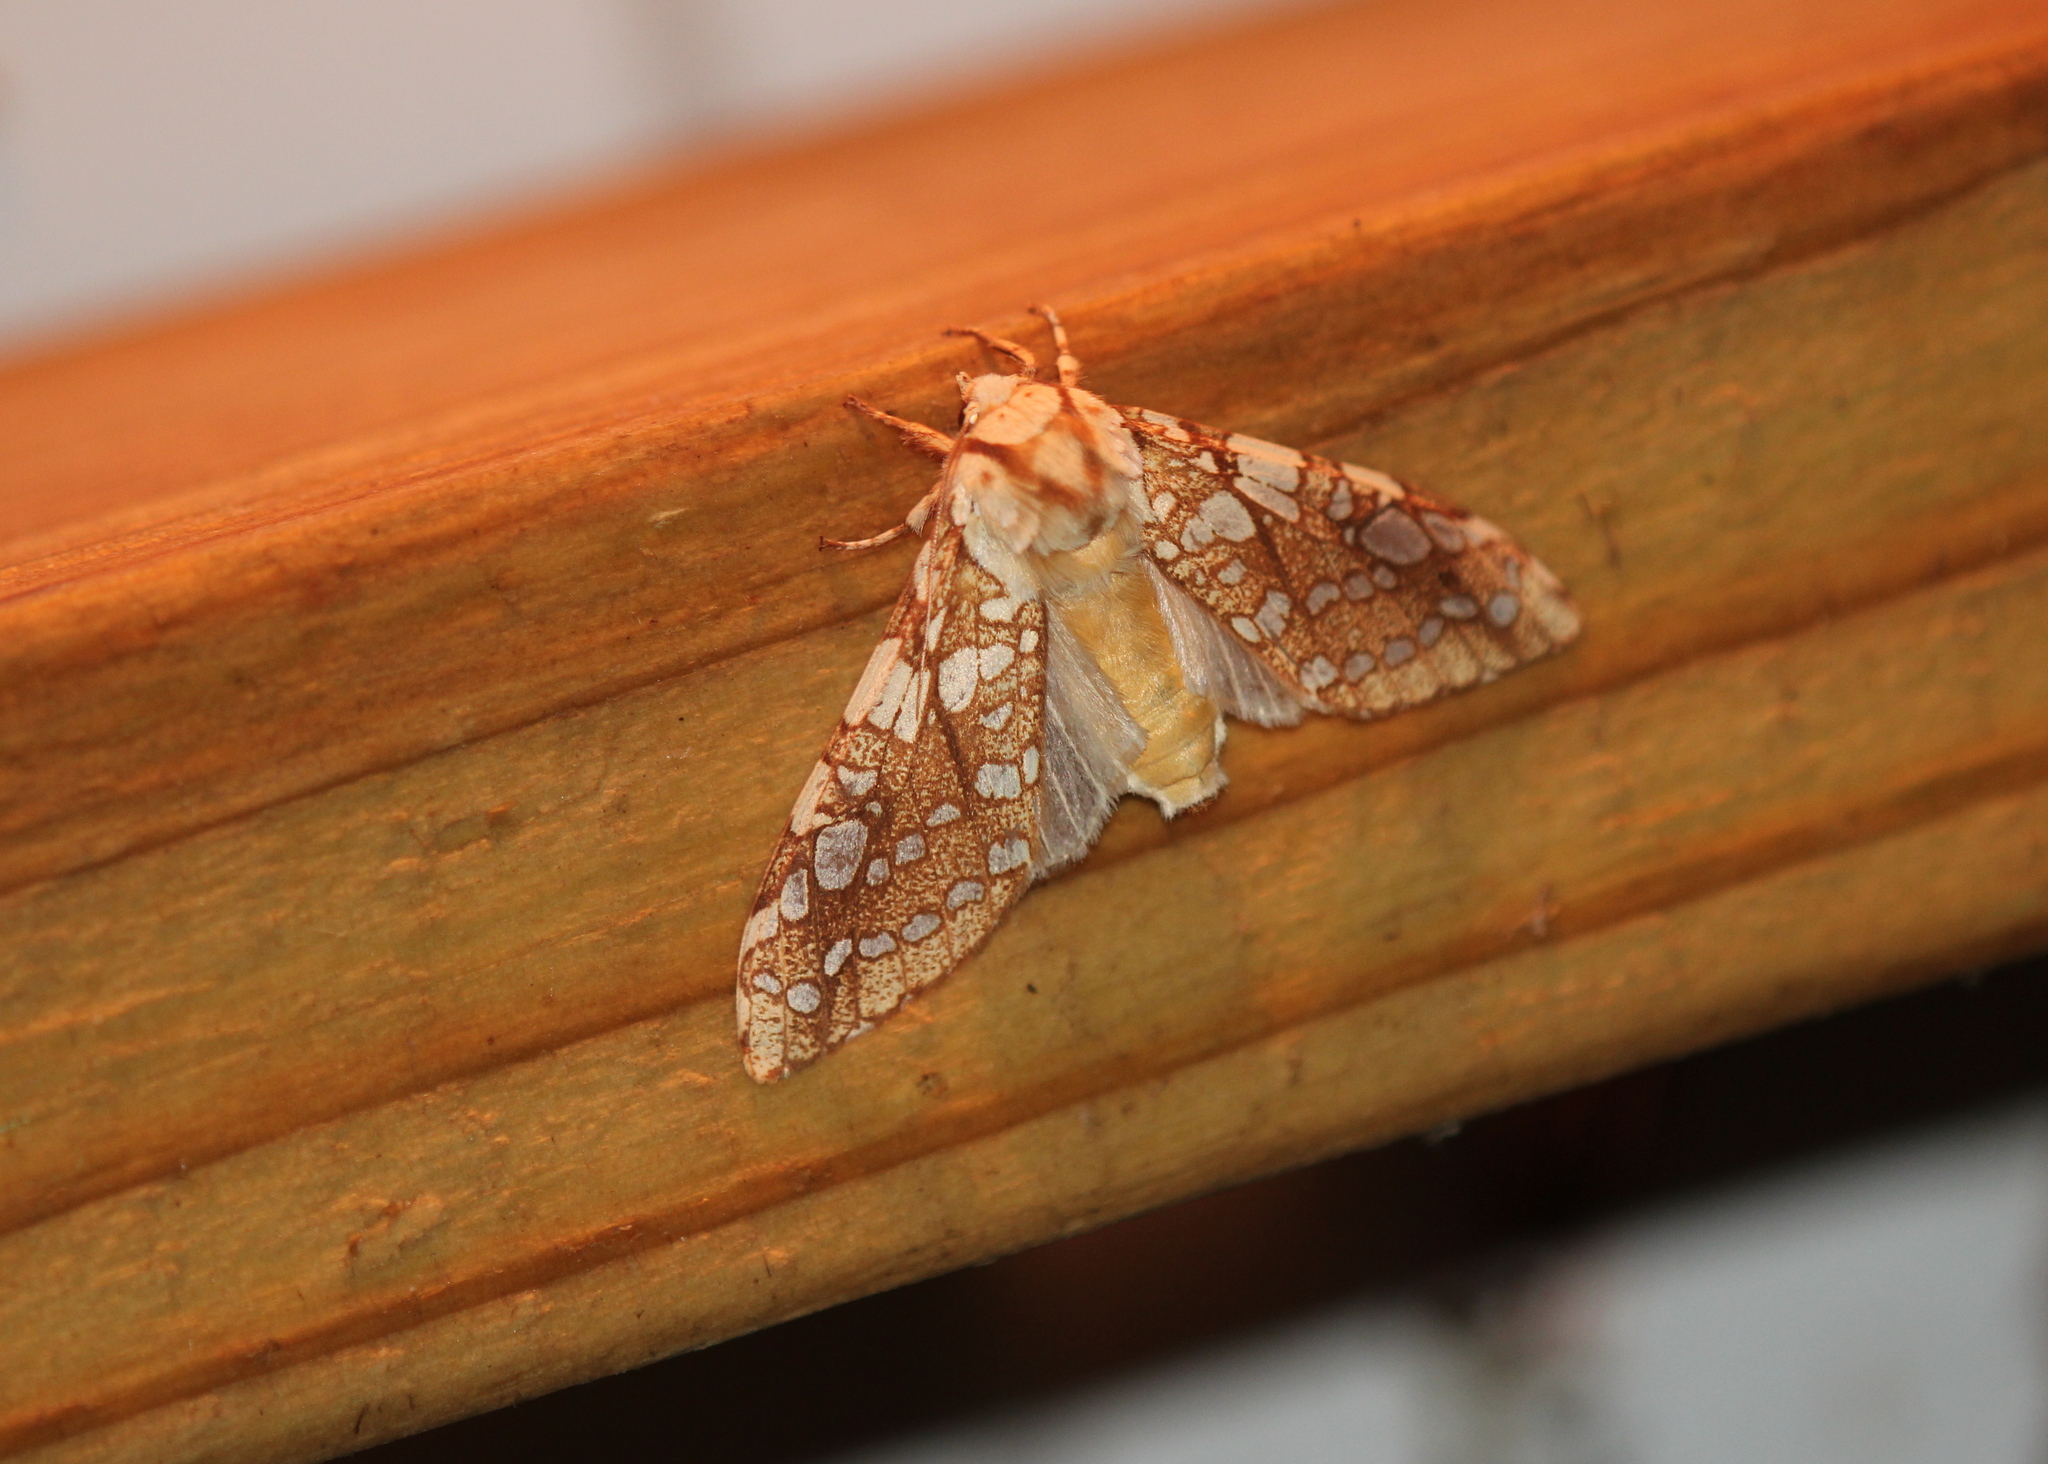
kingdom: Animalia
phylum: Arthropoda
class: Insecta
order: Lepidoptera
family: Erebidae
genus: Lophocampa
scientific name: Lophocampa caryae
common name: Hickory tussock moth
